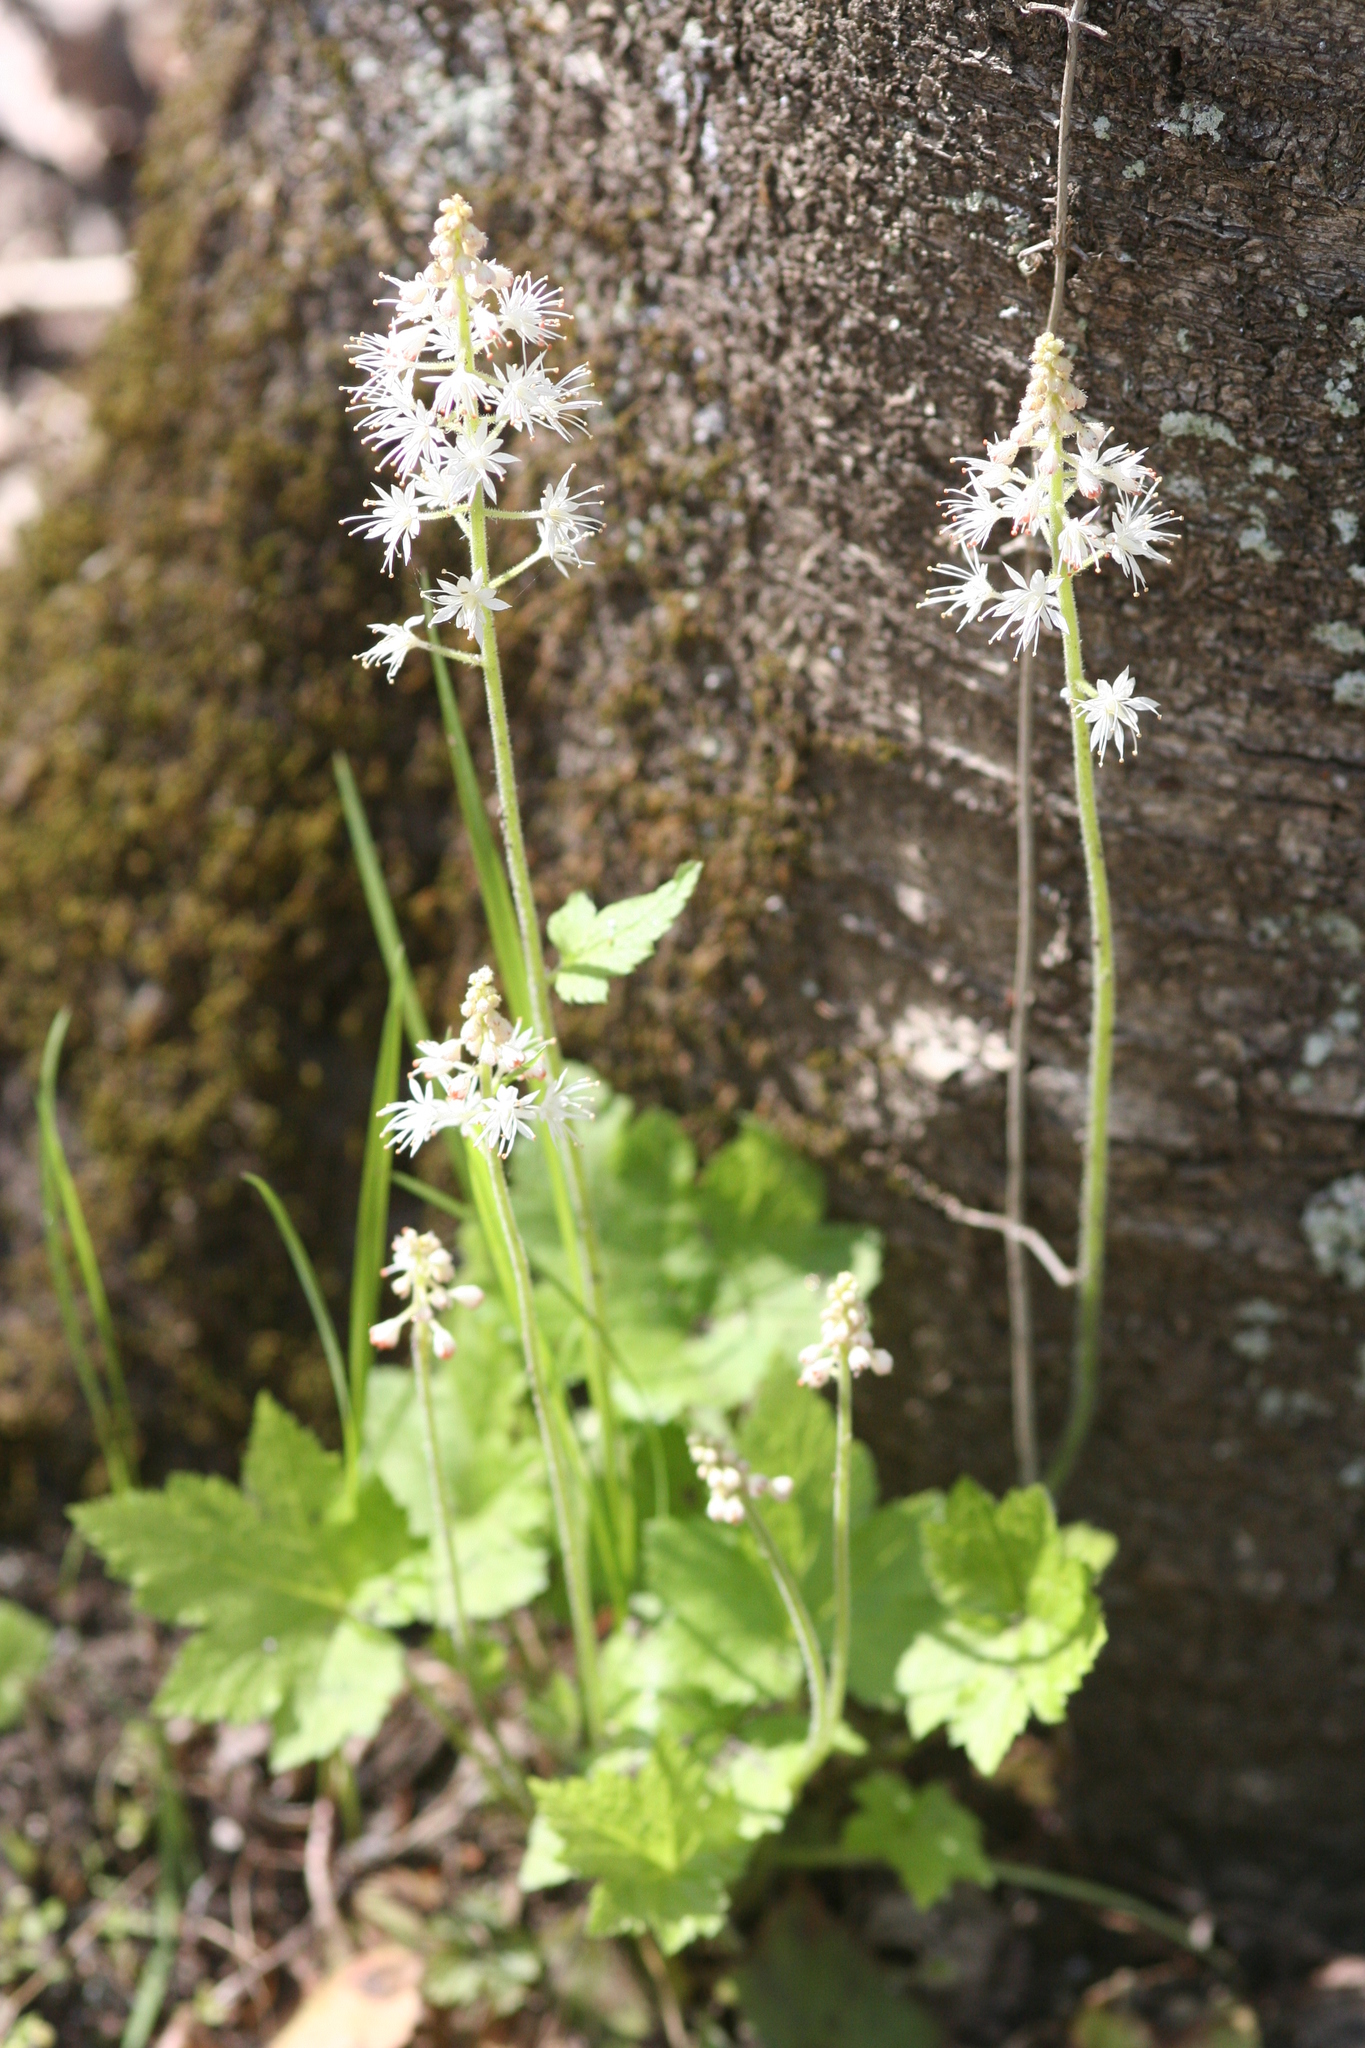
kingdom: Plantae
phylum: Tracheophyta
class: Magnoliopsida
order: Saxifragales
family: Saxifragaceae
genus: Tiarella
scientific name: Tiarella austrina
